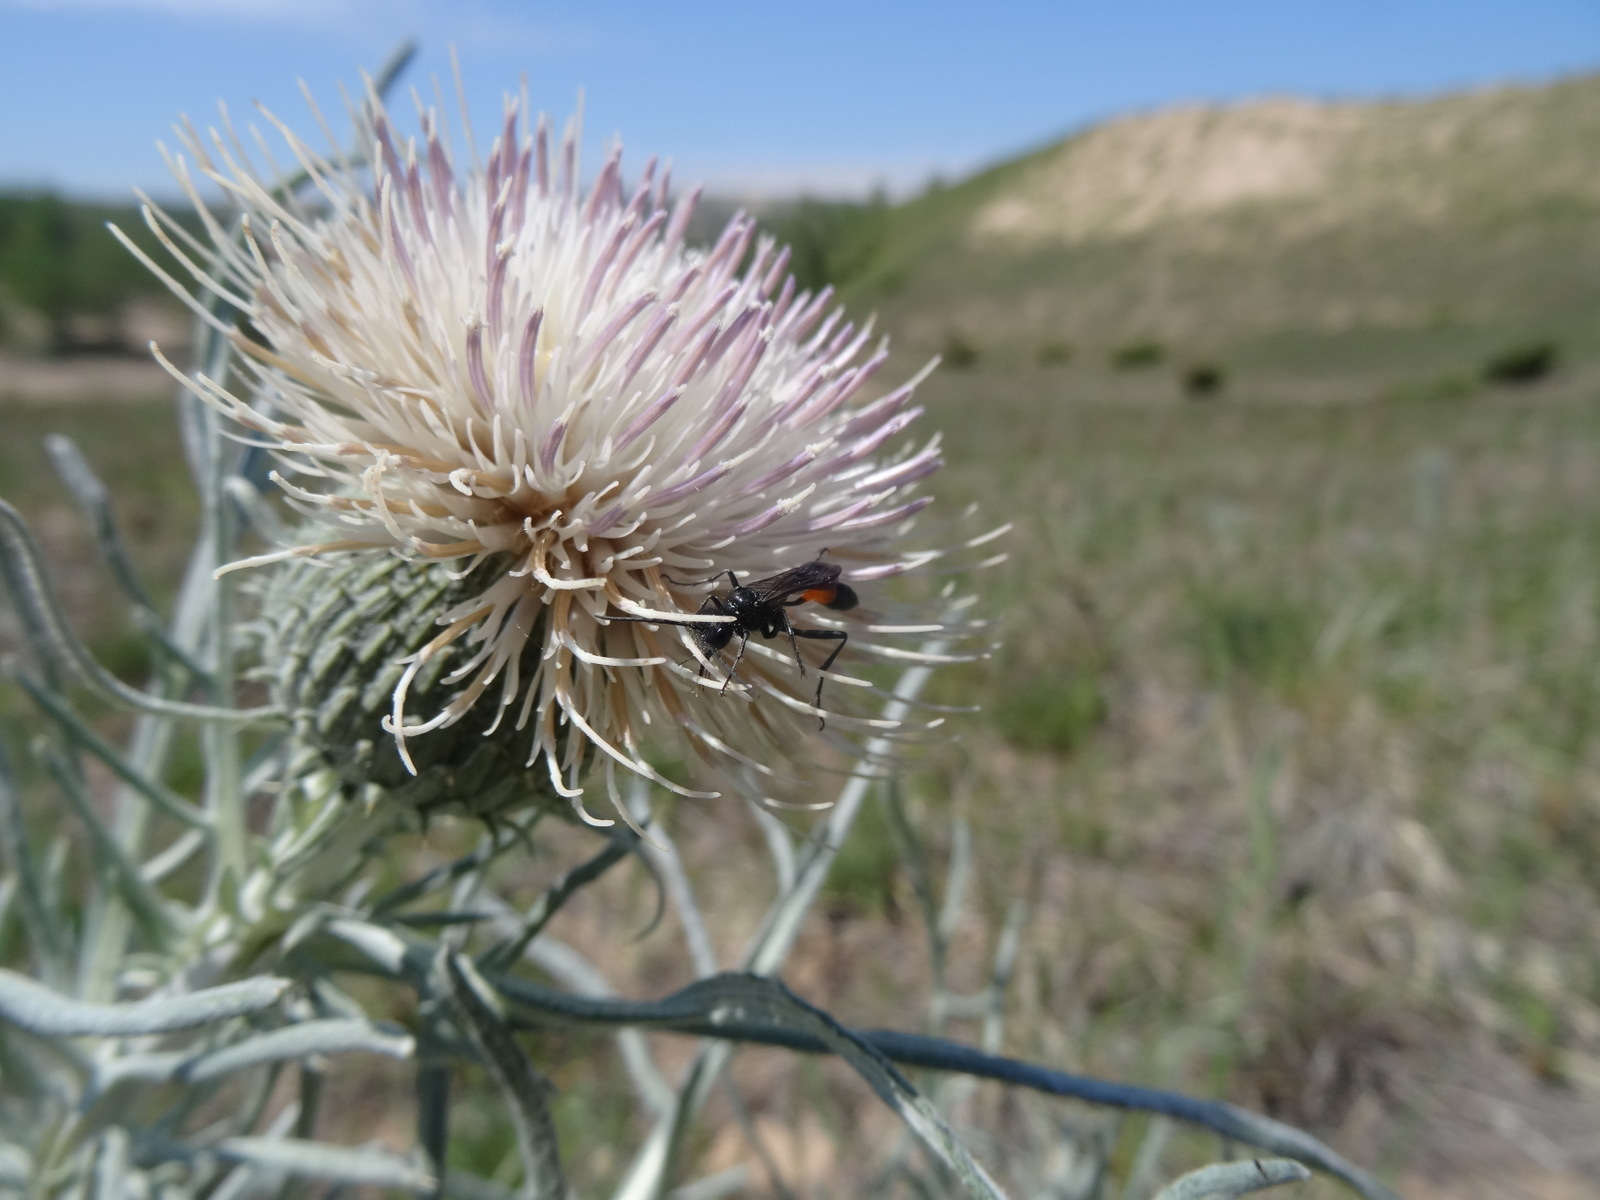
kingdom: Plantae
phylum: Tracheophyta
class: Magnoliopsida
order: Asterales
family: Asteraceae
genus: Cirsium
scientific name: Cirsium pitcheri
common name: Dune thistle
